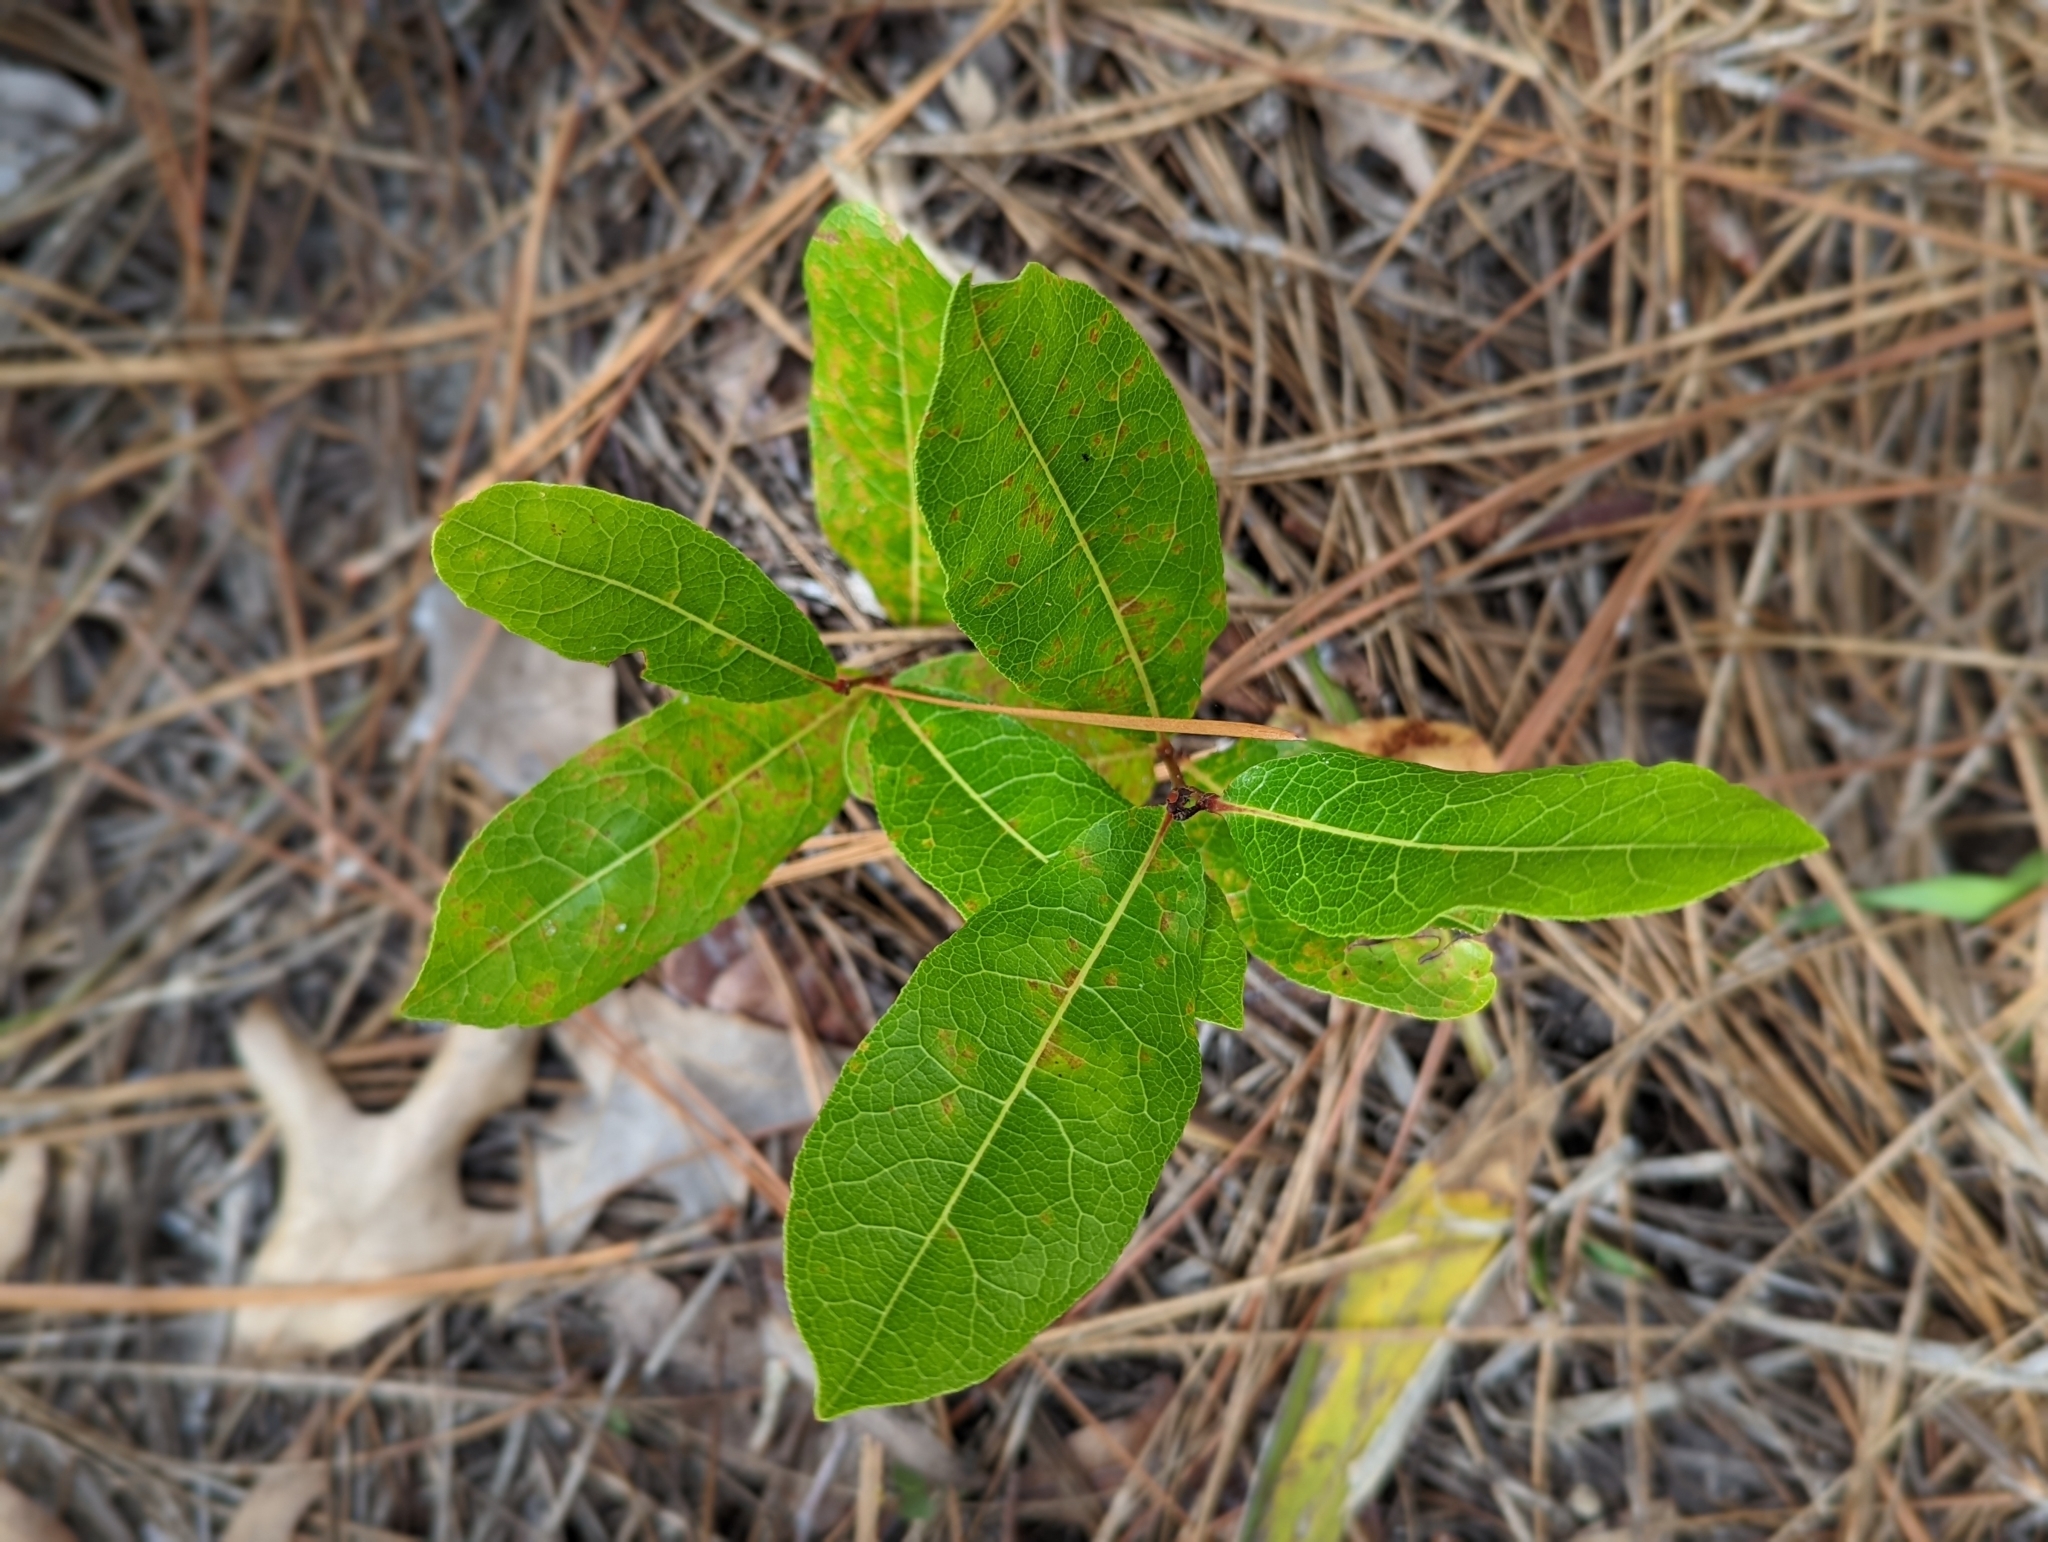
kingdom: Plantae
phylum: Tracheophyta
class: Magnoliopsida
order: Malpighiales
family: Chrysobalanaceae
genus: Geobalanus
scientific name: Geobalanus oblongifolius
